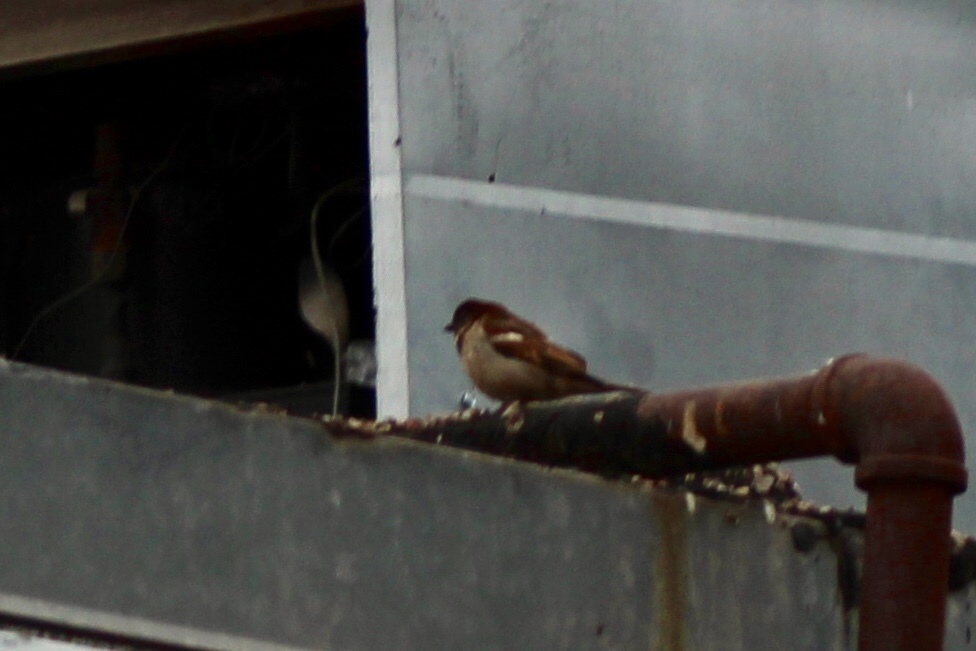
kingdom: Animalia
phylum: Chordata
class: Aves
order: Passeriformes
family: Passeridae
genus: Passer
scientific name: Passer domesticus
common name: House sparrow
